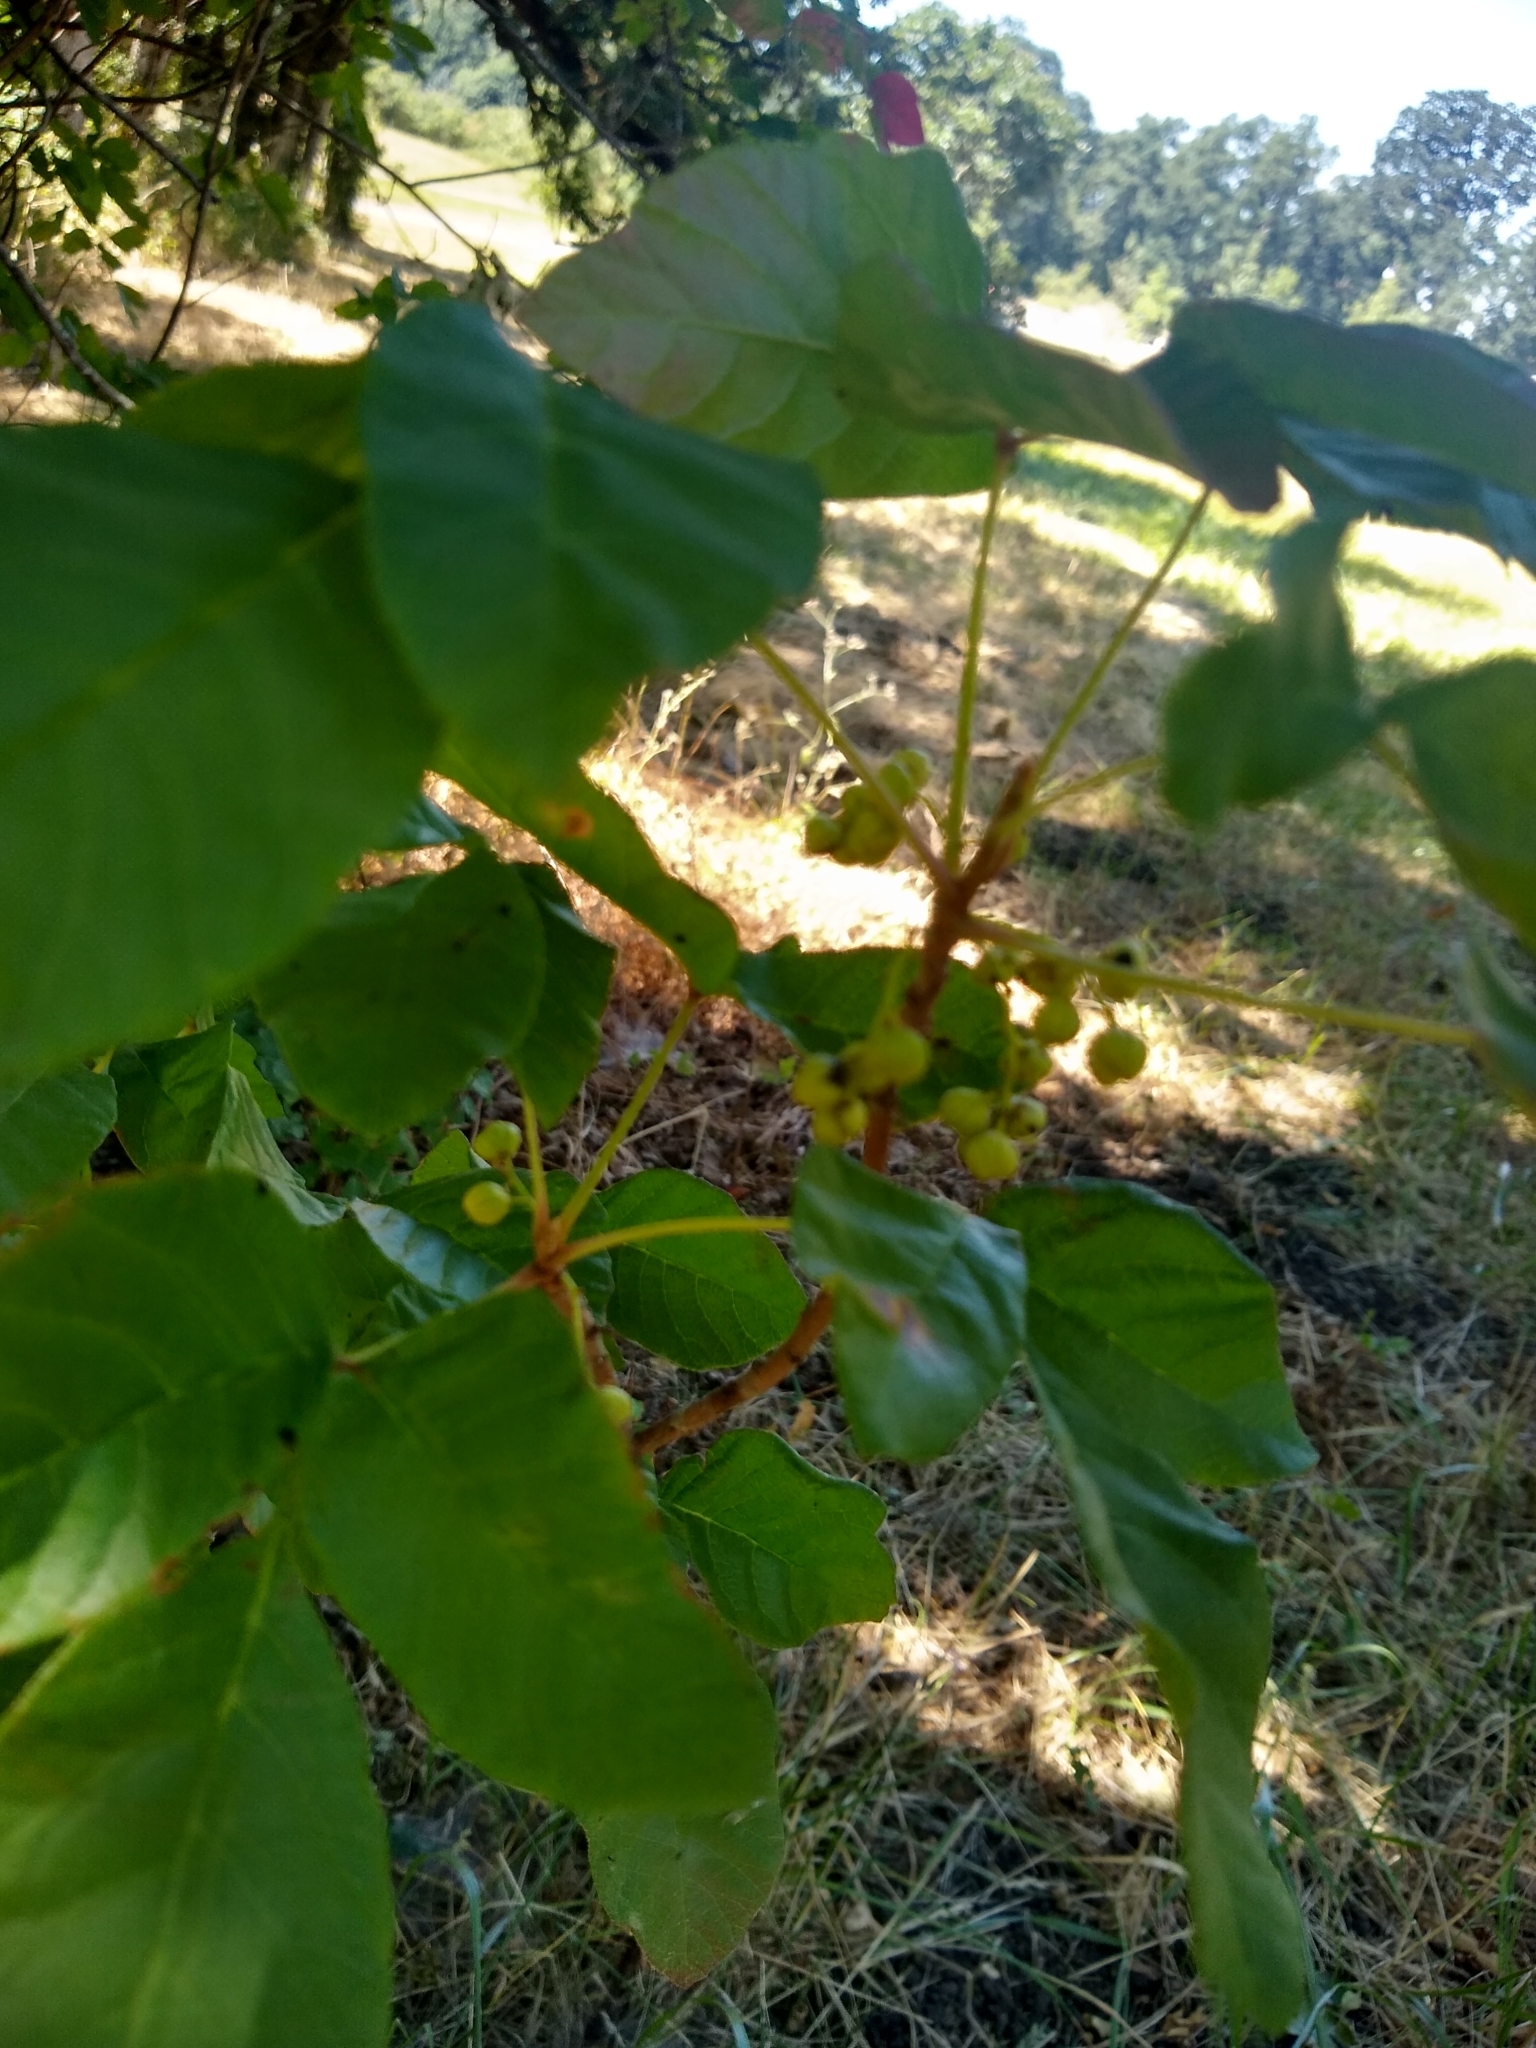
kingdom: Plantae
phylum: Tracheophyta
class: Magnoliopsida
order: Sapindales
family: Anacardiaceae
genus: Toxicodendron
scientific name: Toxicodendron diversilobum
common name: Pacific poison-oak
